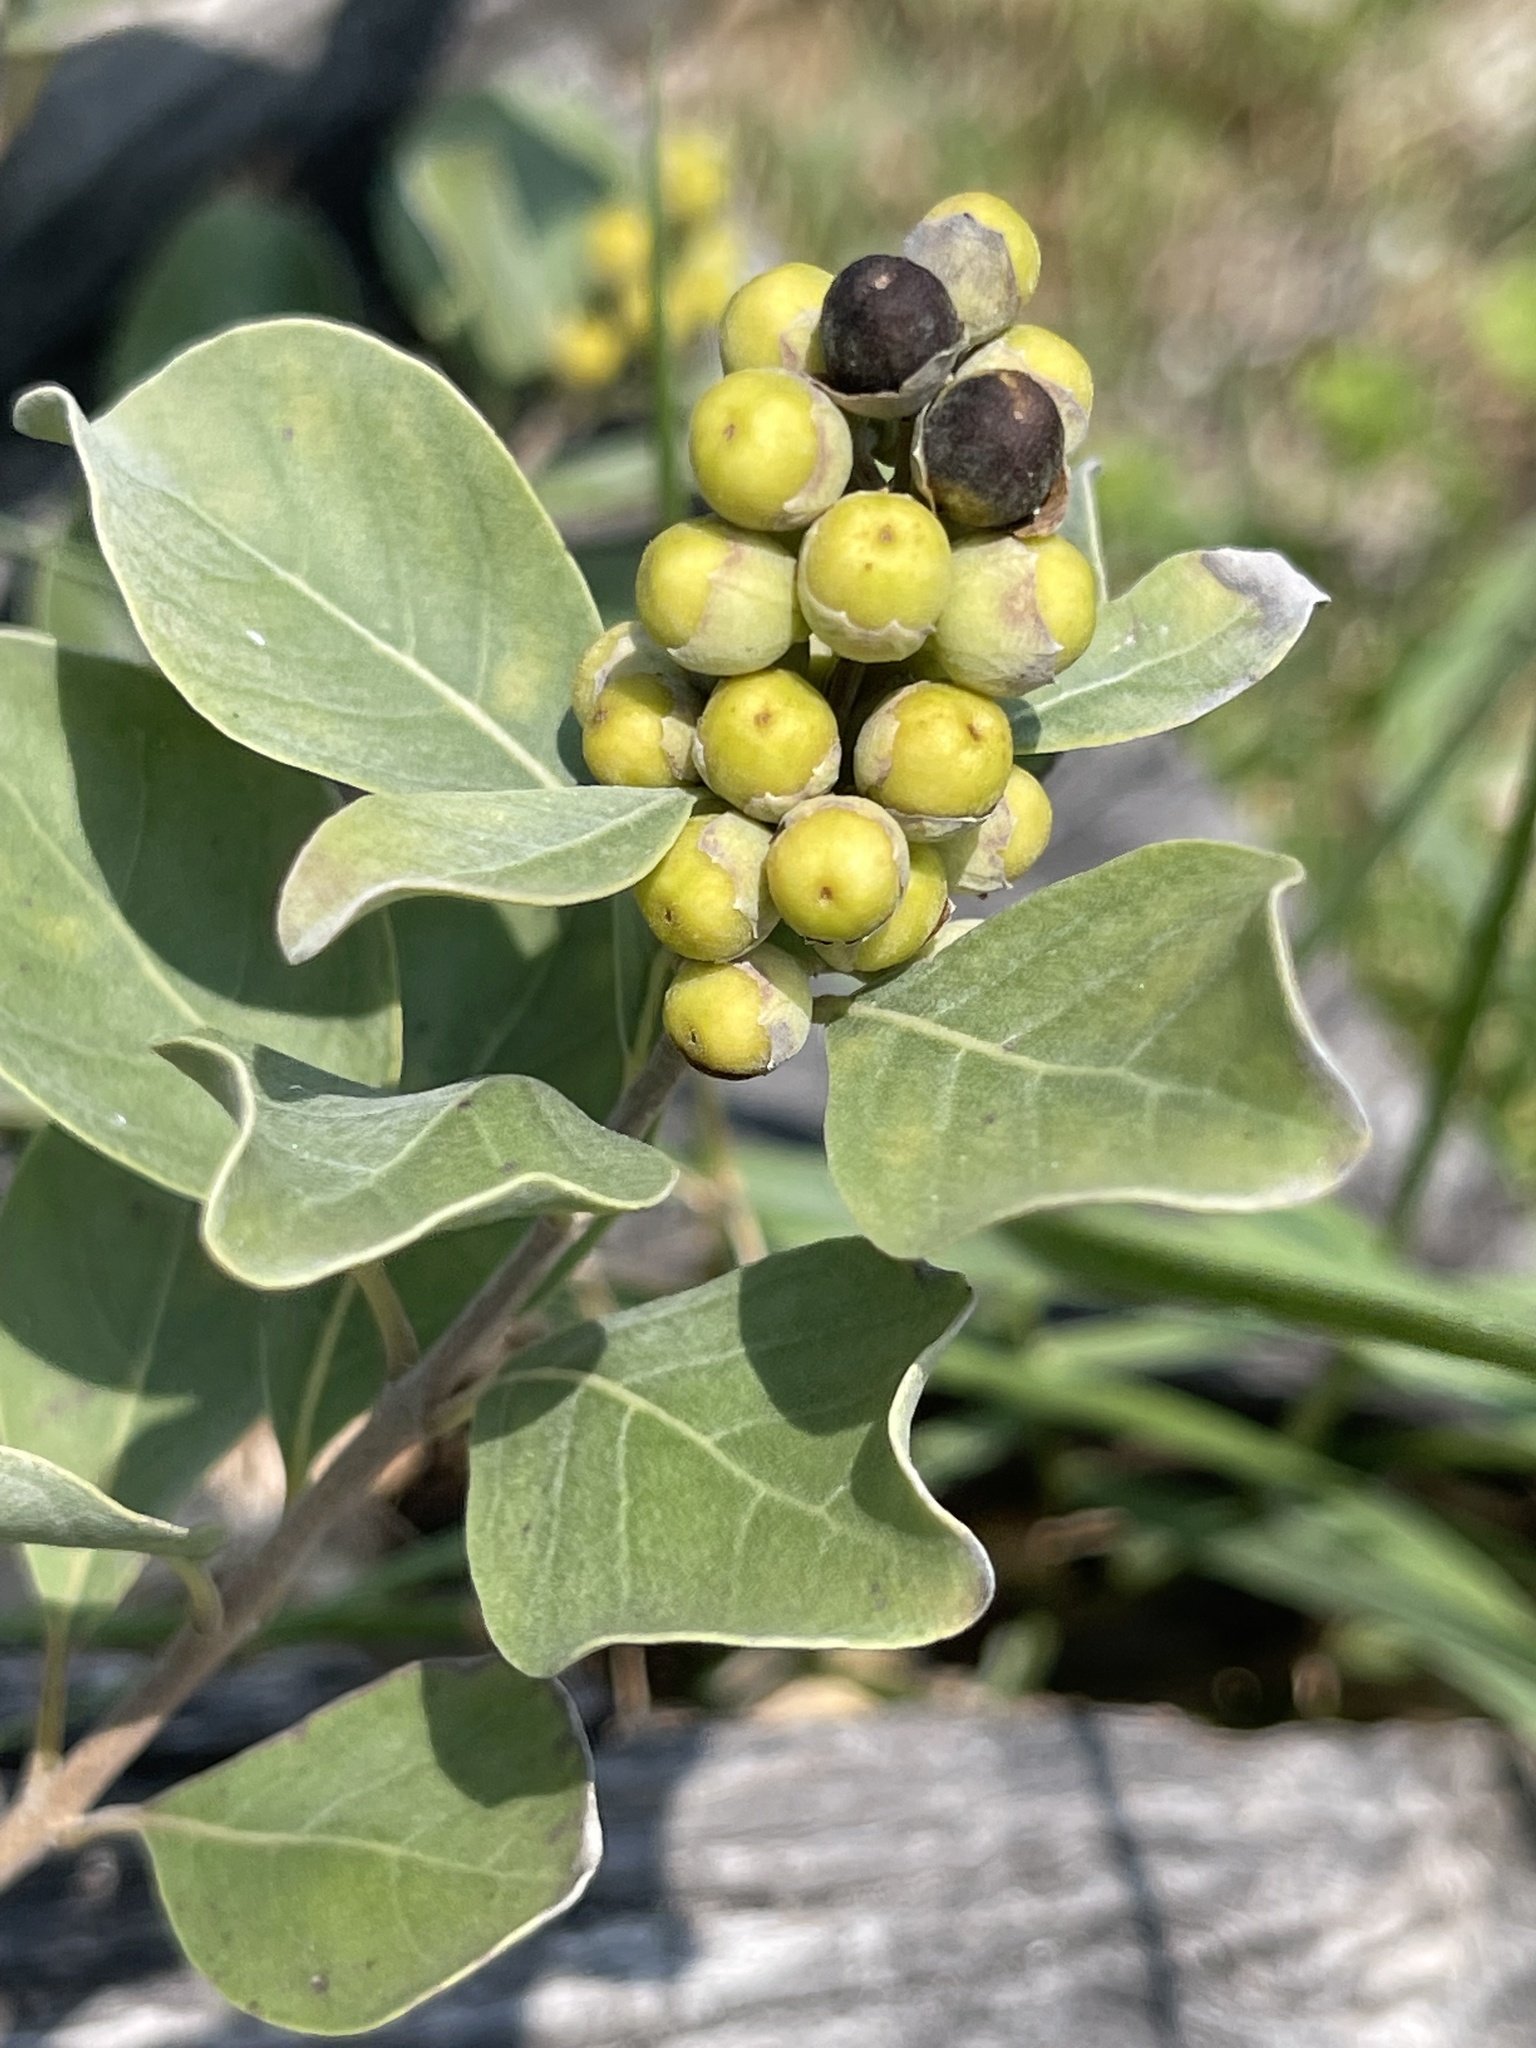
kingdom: Plantae
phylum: Tracheophyta
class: Magnoliopsida
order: Lamiales
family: Lamiaceae
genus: Vitex
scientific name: Vitex rotundifolia
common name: Beach vitex
